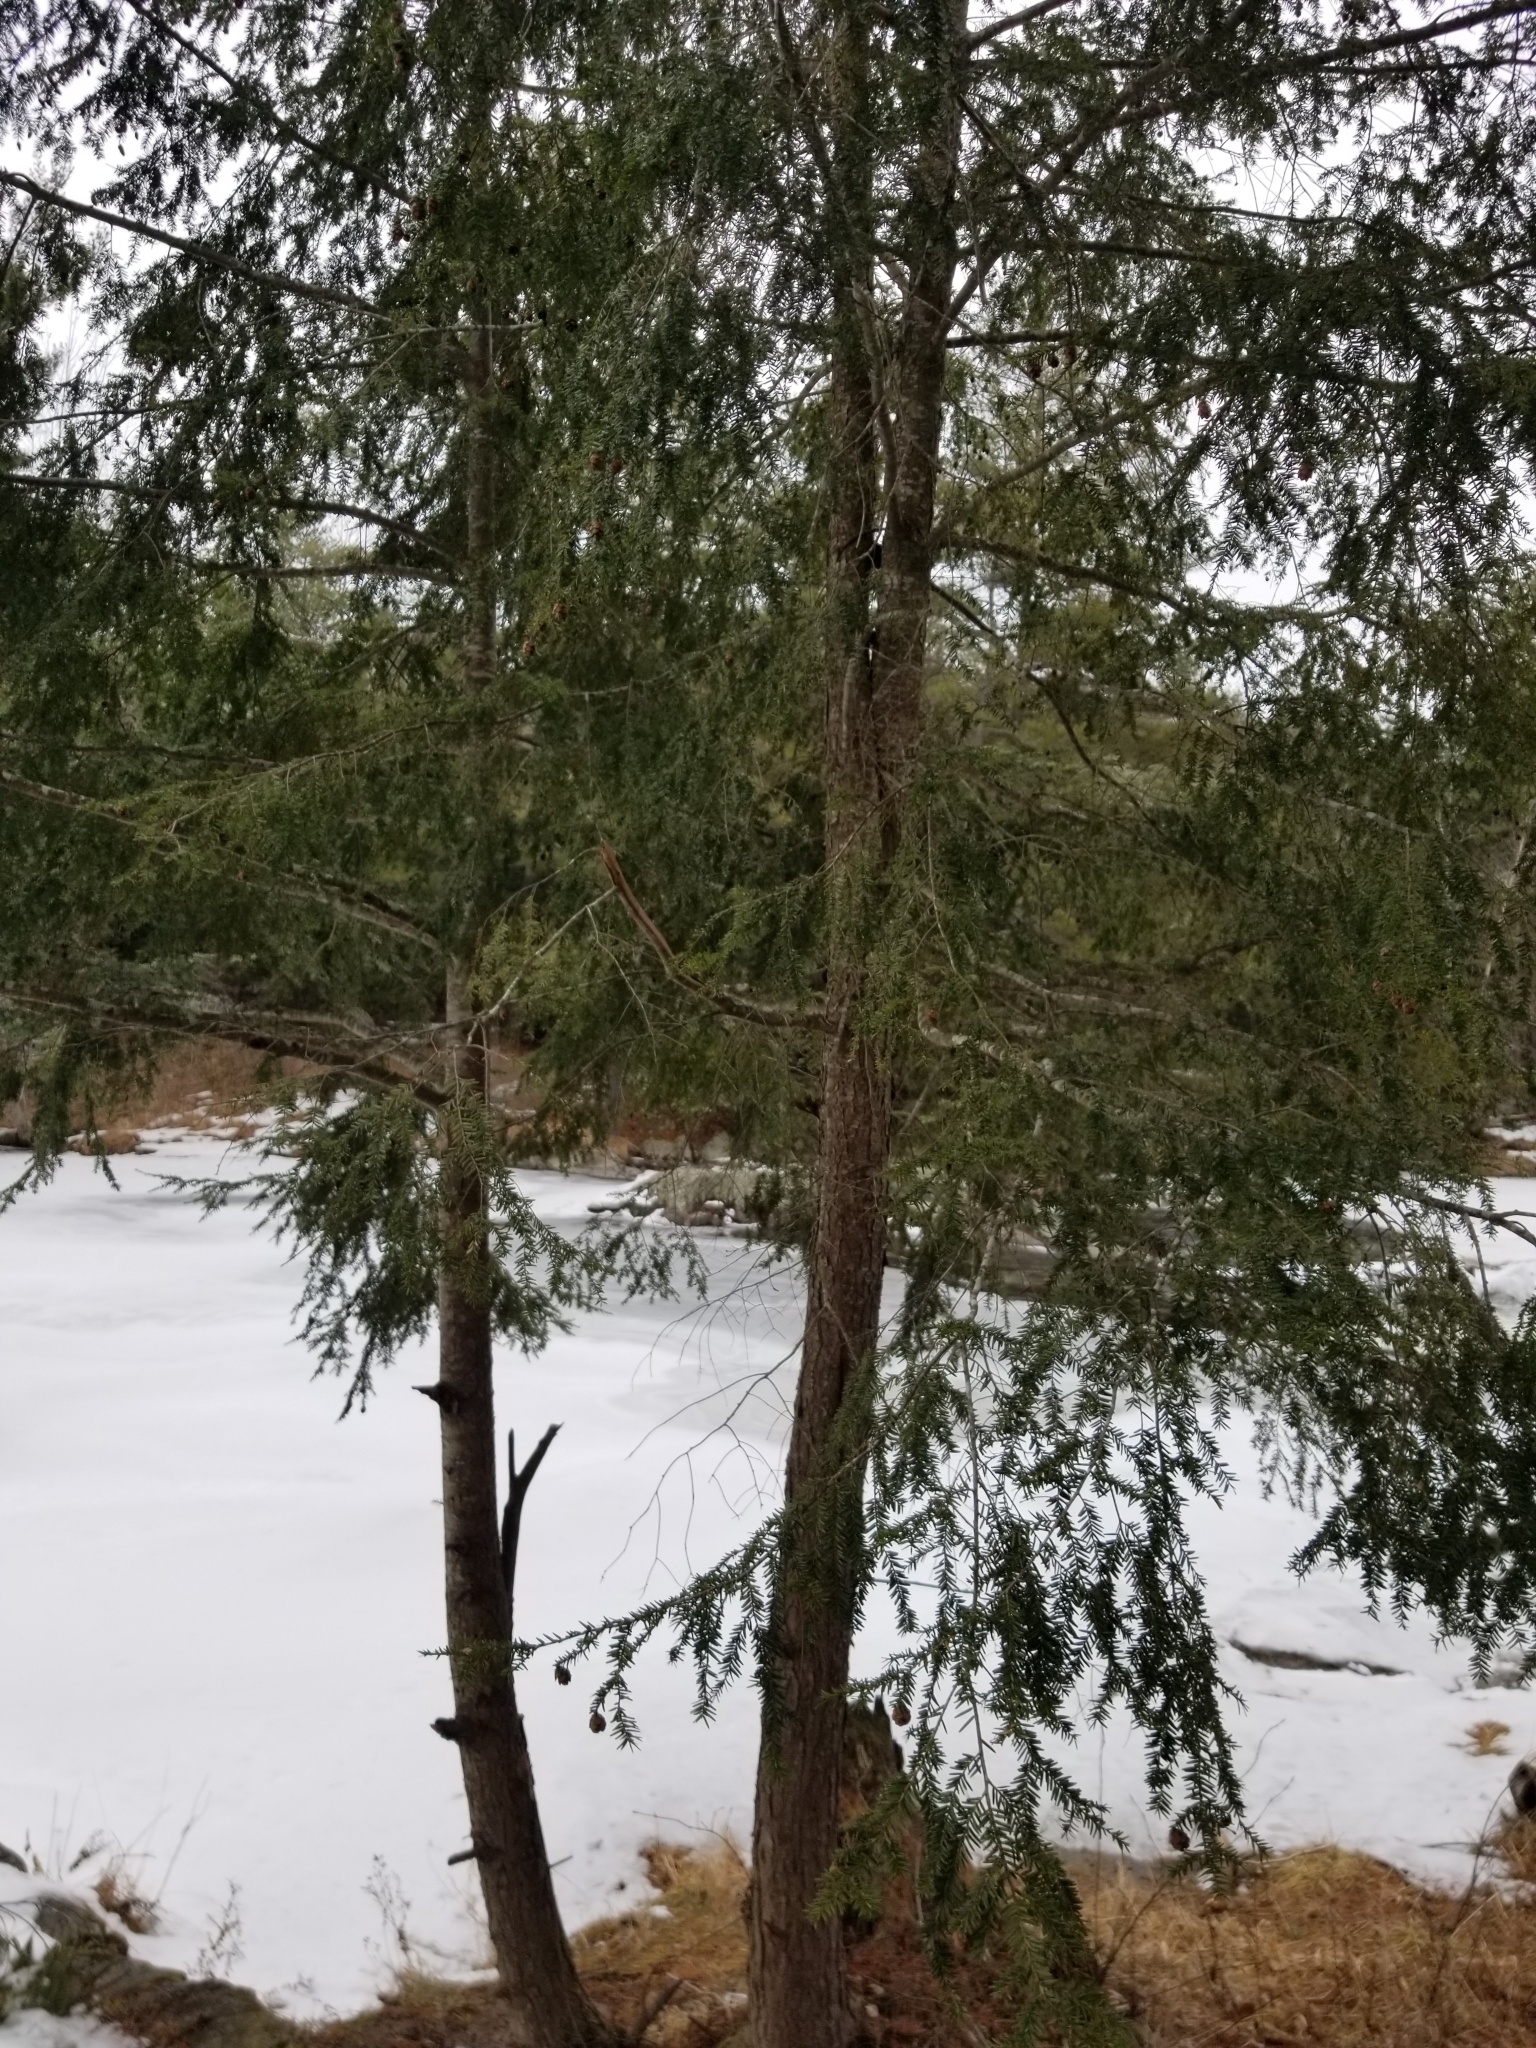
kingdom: Plantae
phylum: Tracheophyta
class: Pinopsida
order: Pinales
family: Pinaceae
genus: Tsuga
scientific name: Tsuga canadensis
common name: Eastern hemlock
